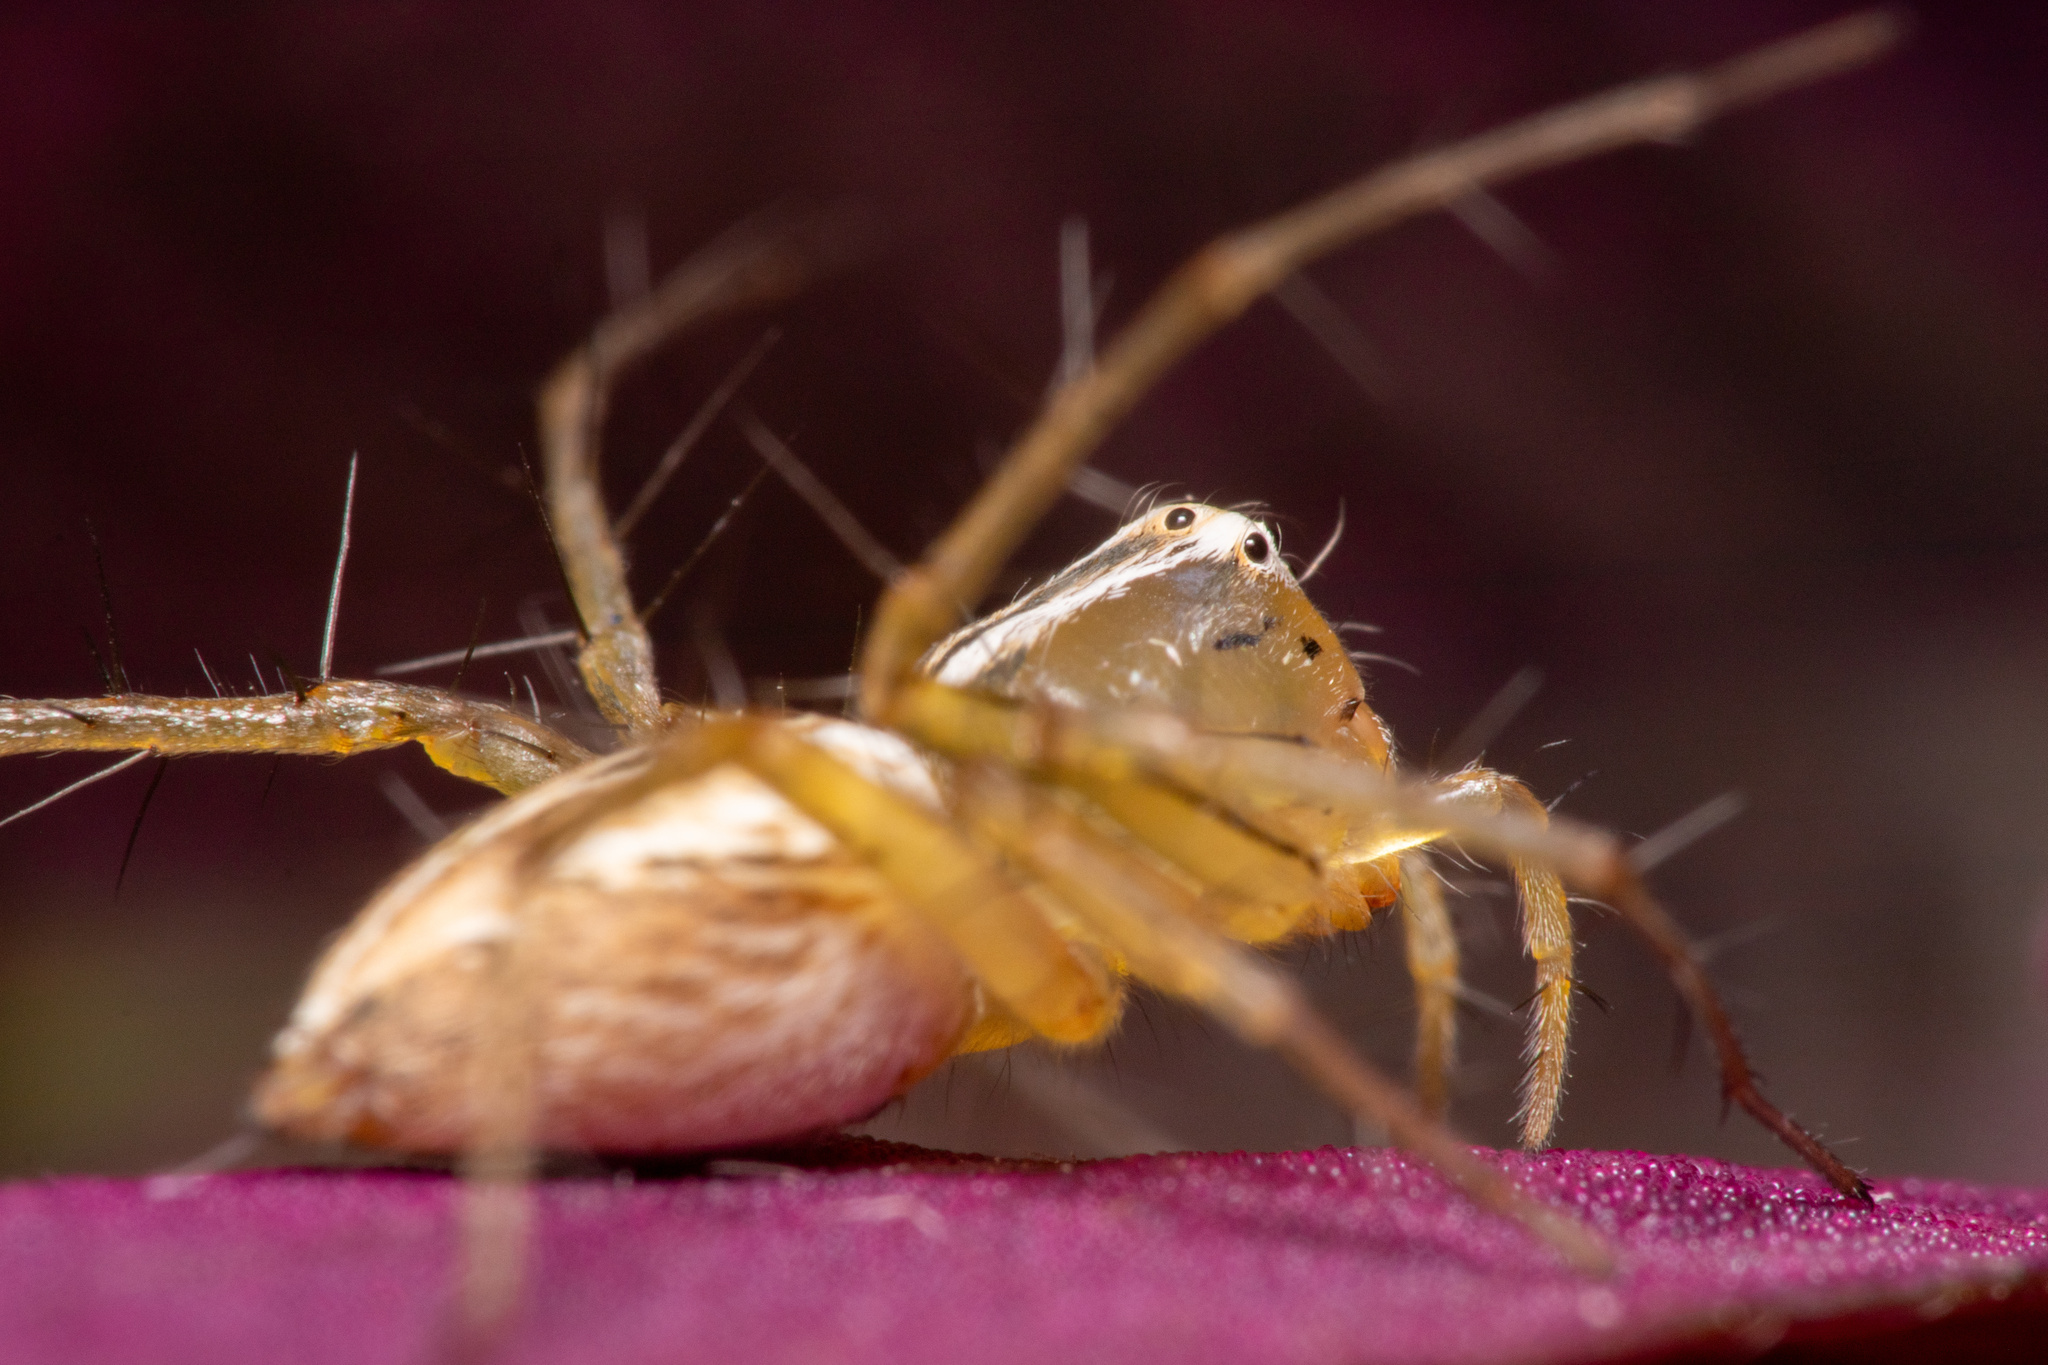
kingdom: Animalia
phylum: Arthropoda
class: Arachnida
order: Araneae
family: Oxyopidae
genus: Oxyopes
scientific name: Oxyopes salticus
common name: Lynx spiders
